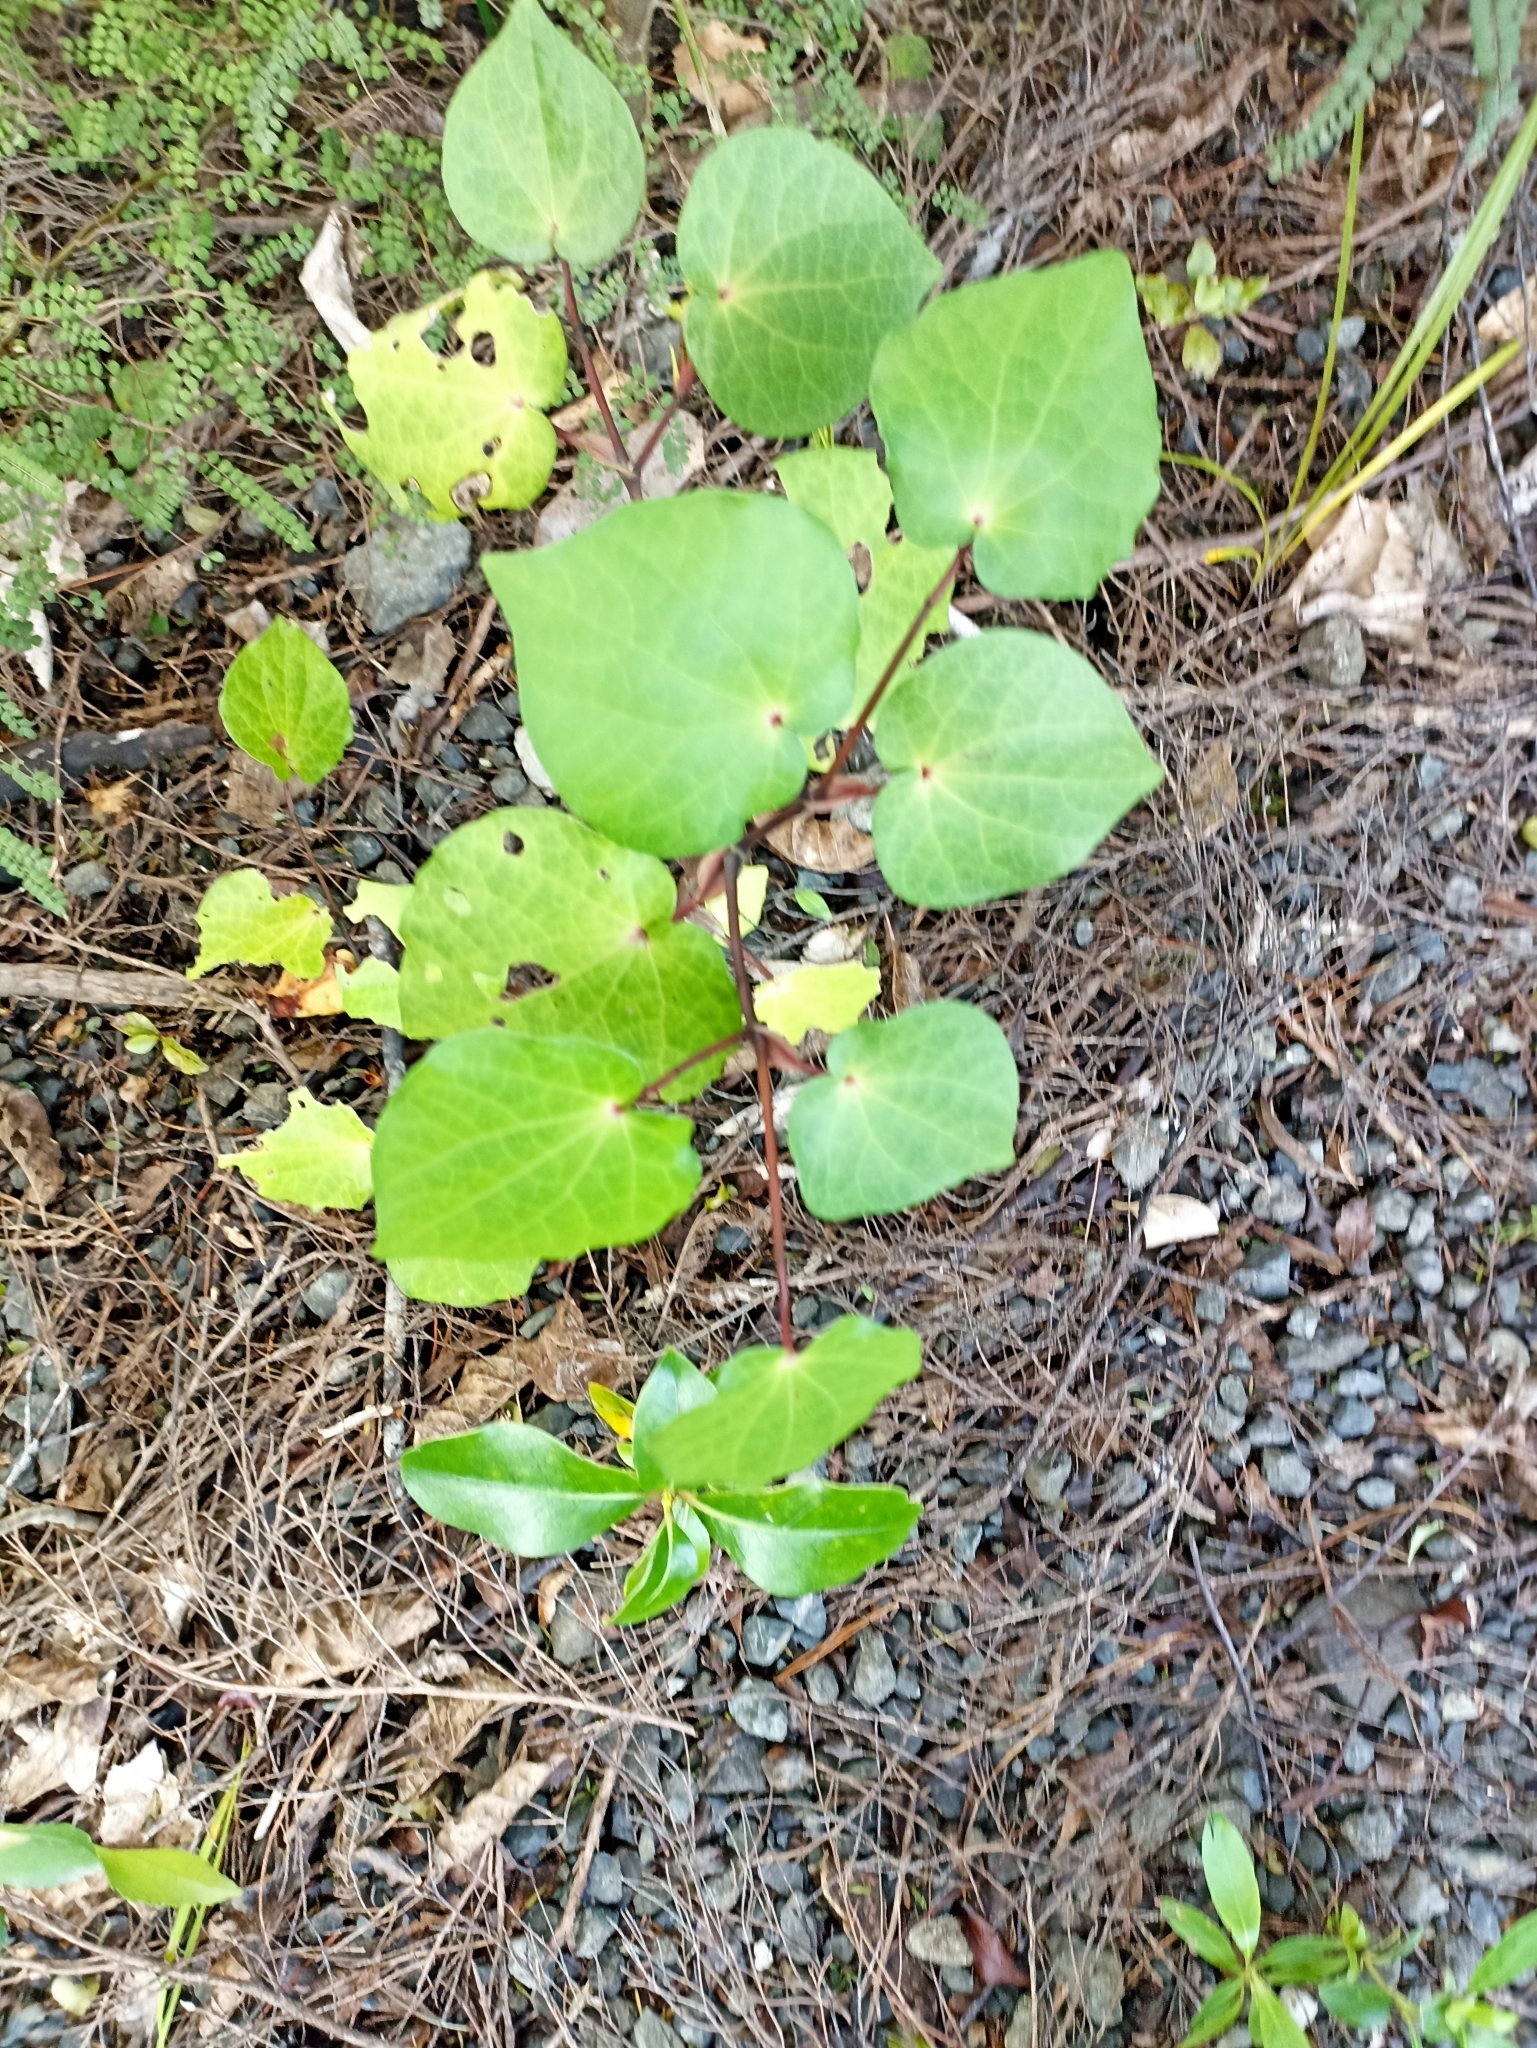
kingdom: Plantae
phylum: Tracheophyta
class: Magnoliopsida
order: Piperales
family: Piperaceae
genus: Macropiper
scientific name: Macropiper excelsum
